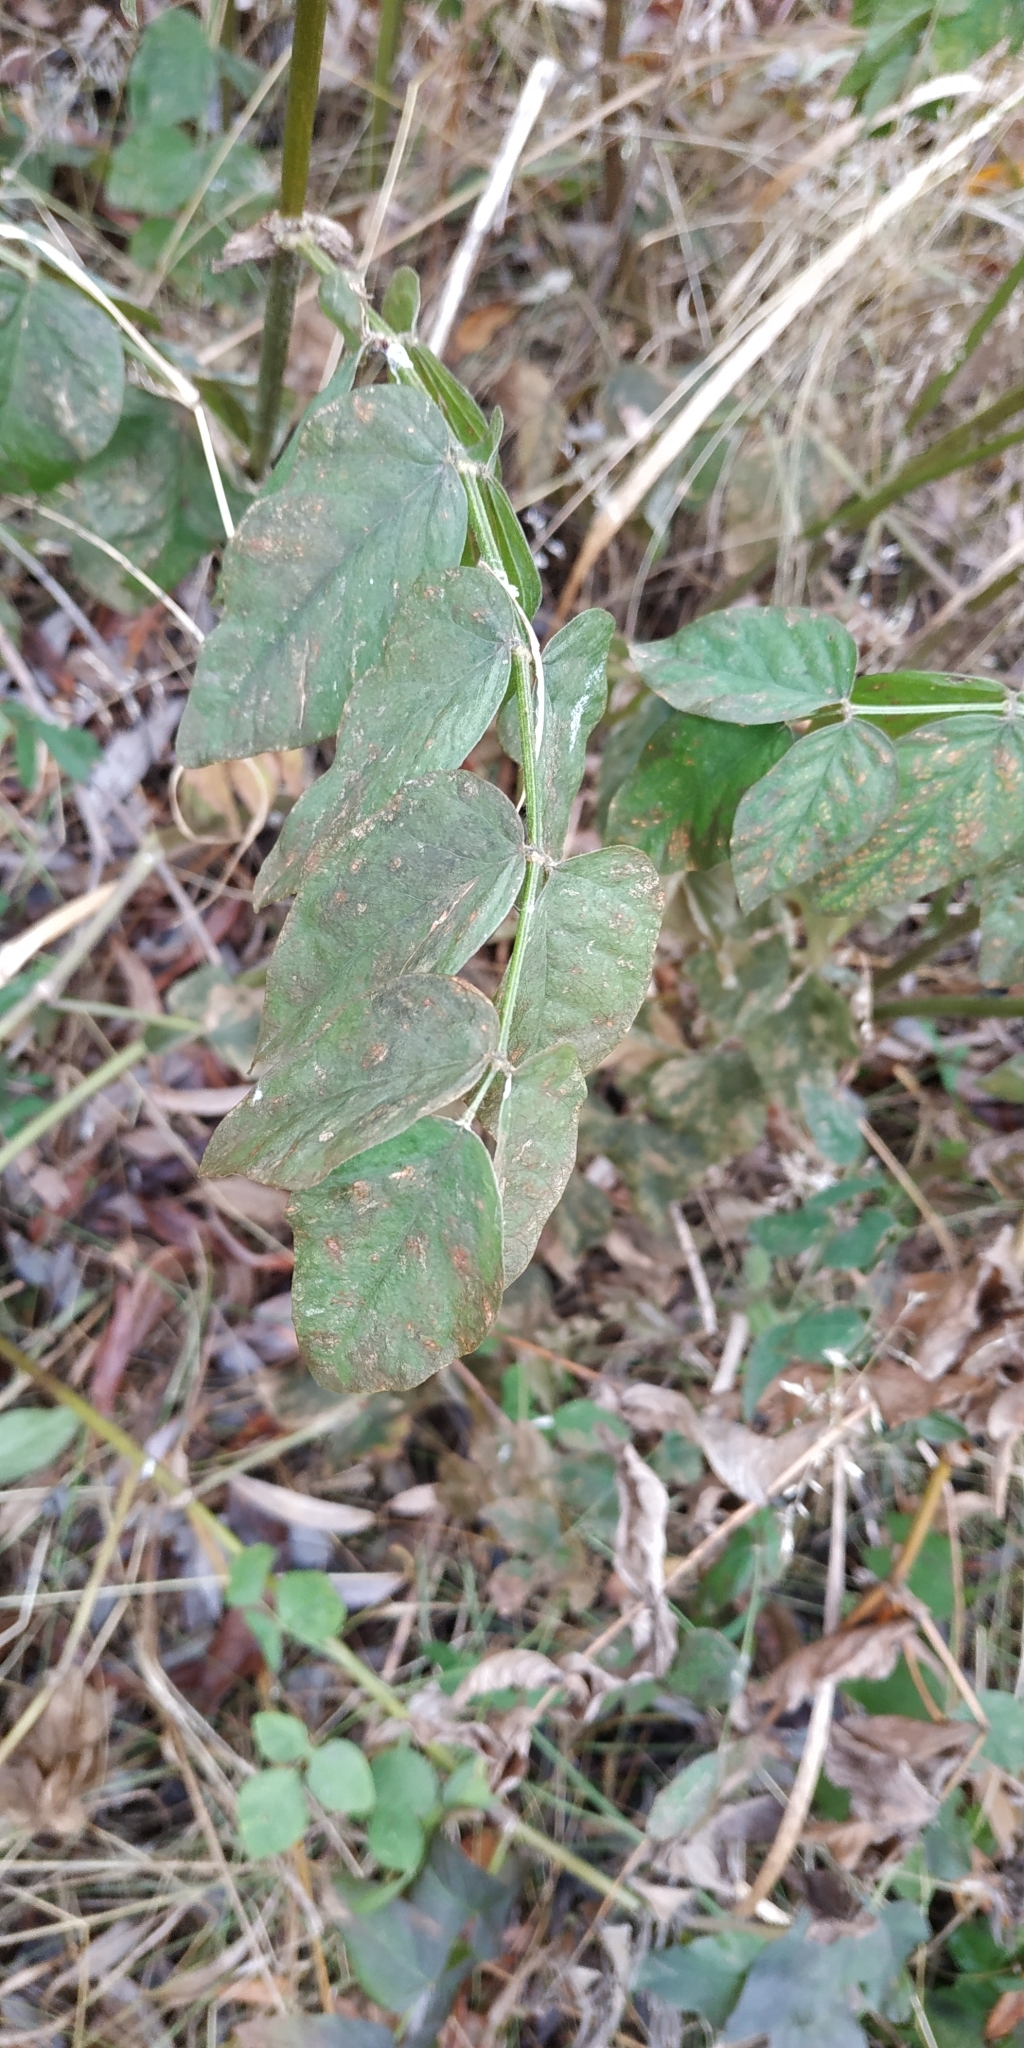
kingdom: Plantae
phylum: Tracheophyta
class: Magnoliopsida
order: Fabales
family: Fabaceae
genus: Galega
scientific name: Galega orientalis
